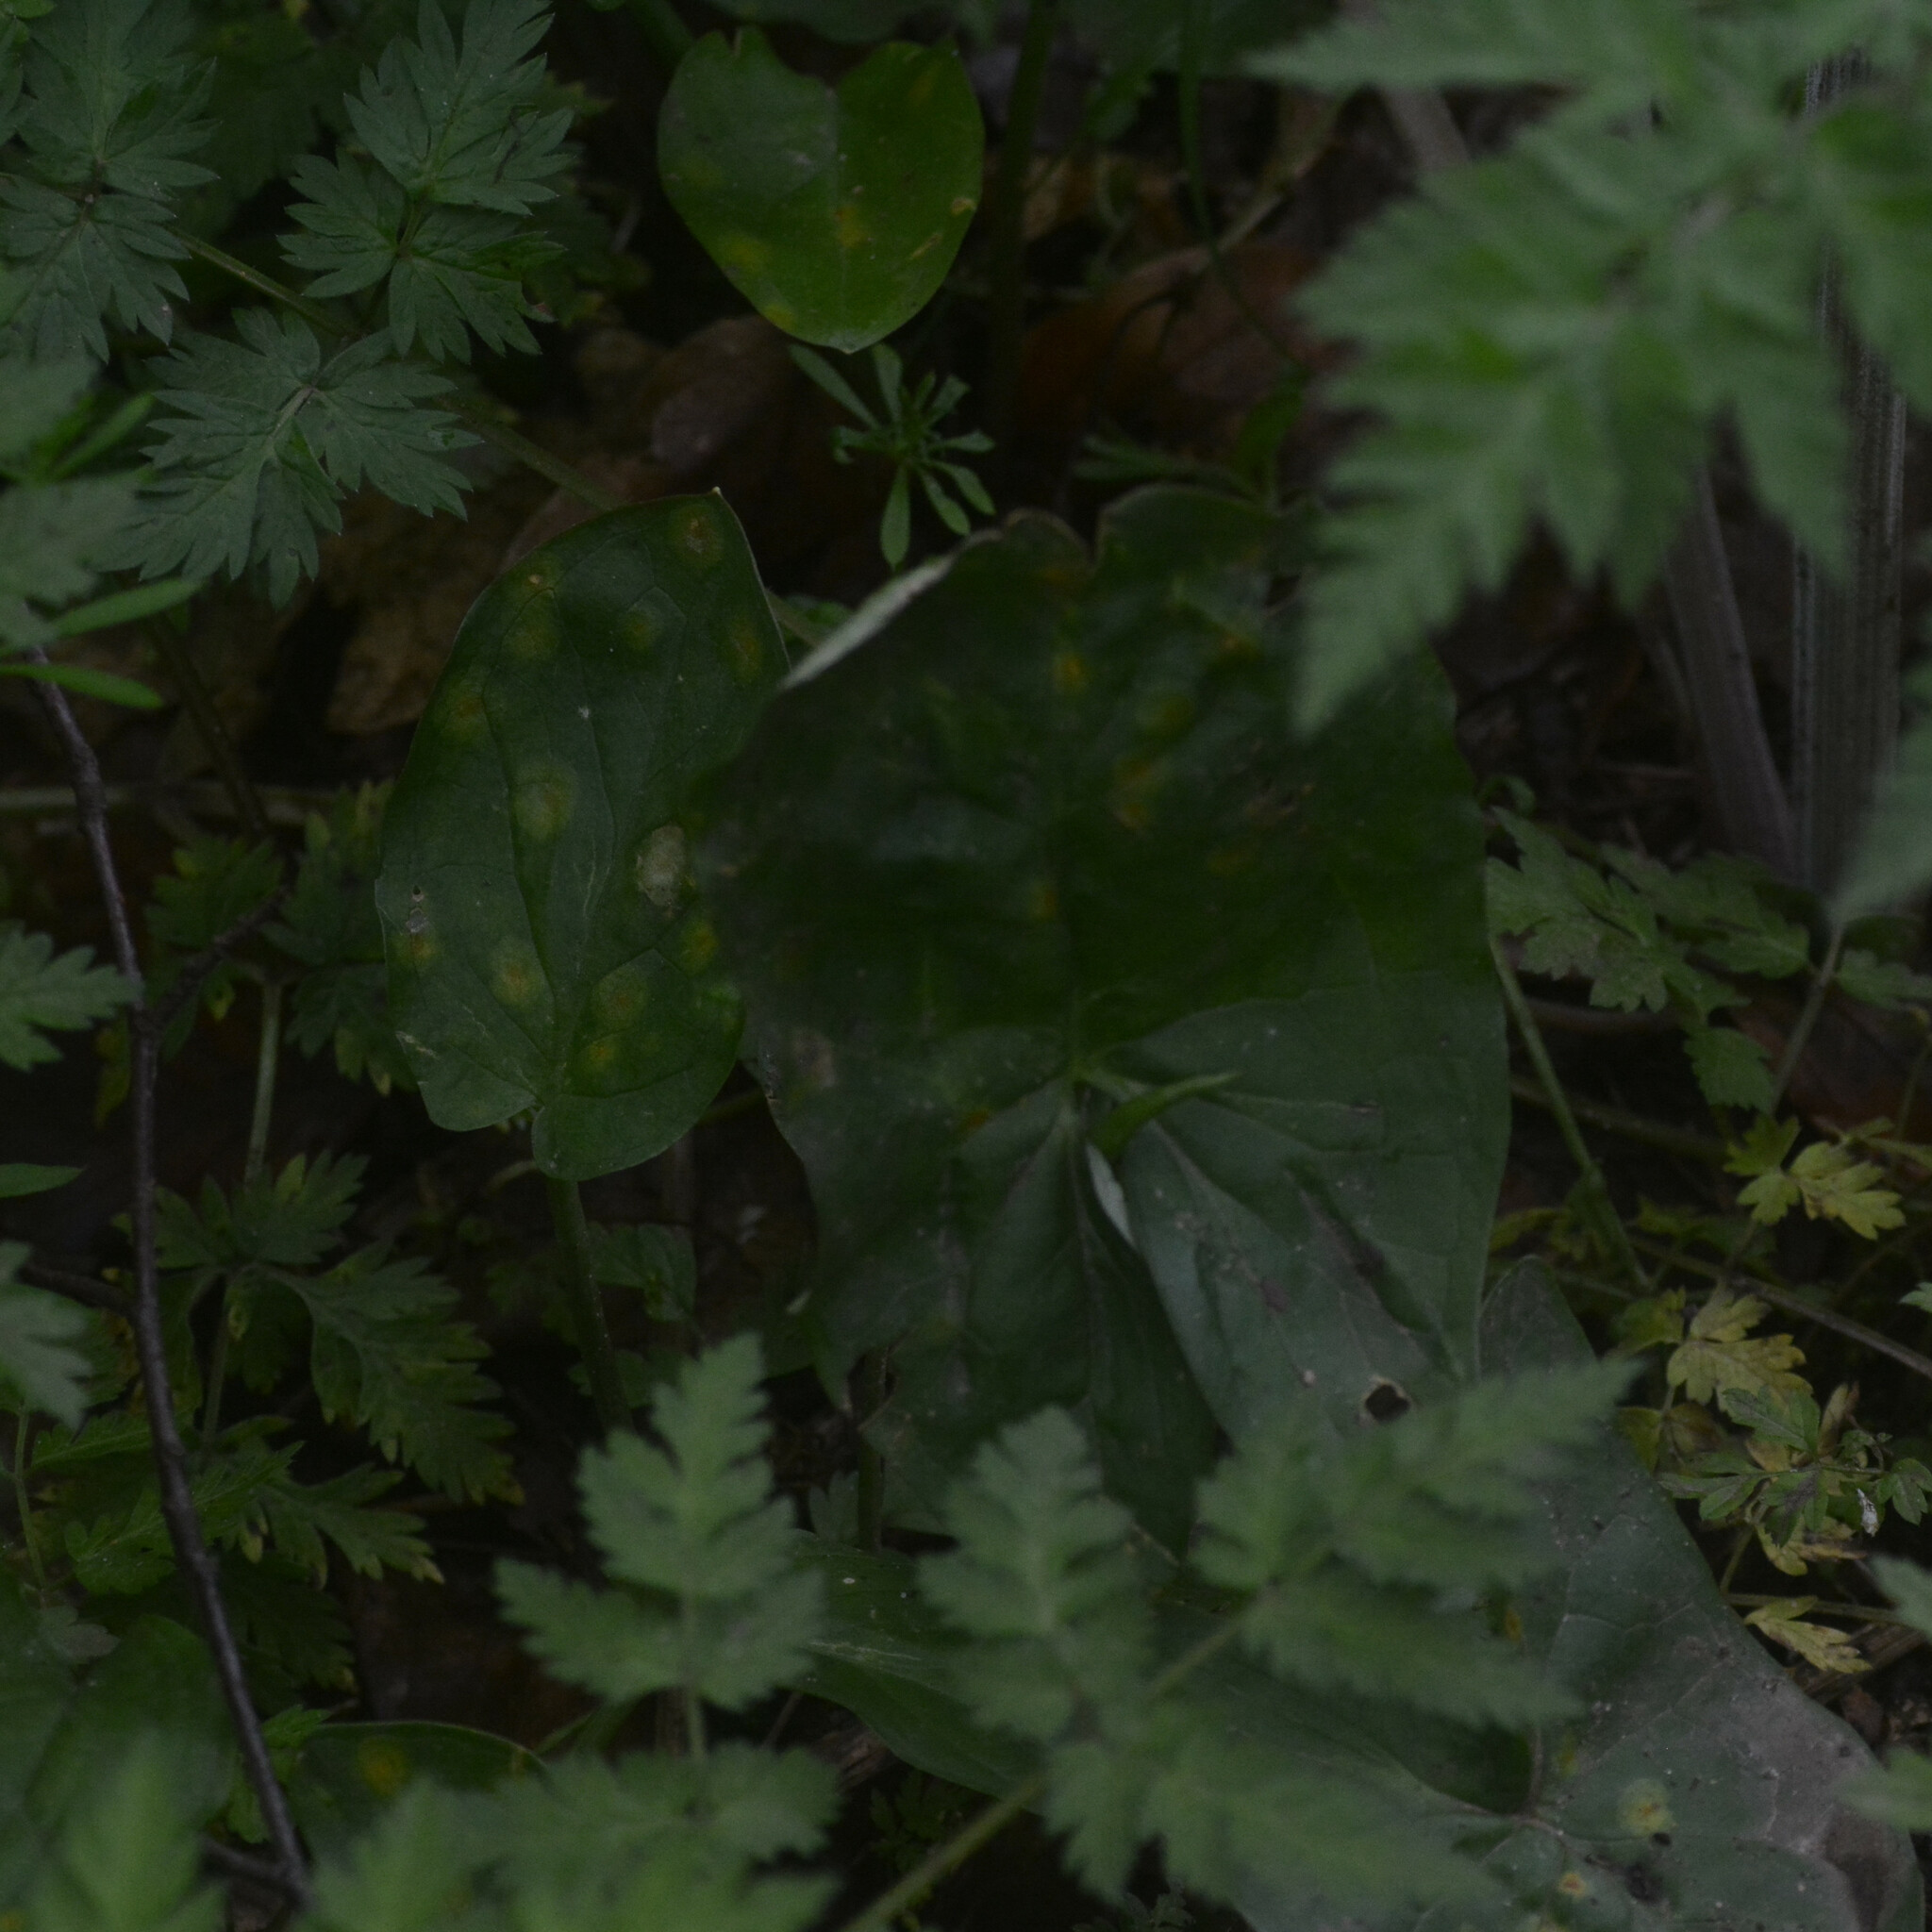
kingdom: Plantae
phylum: Tracheophyta
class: Liliopsida
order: Alismatales
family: Araceae
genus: Arum
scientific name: Arum maculatum
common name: Lords-and-ladies
